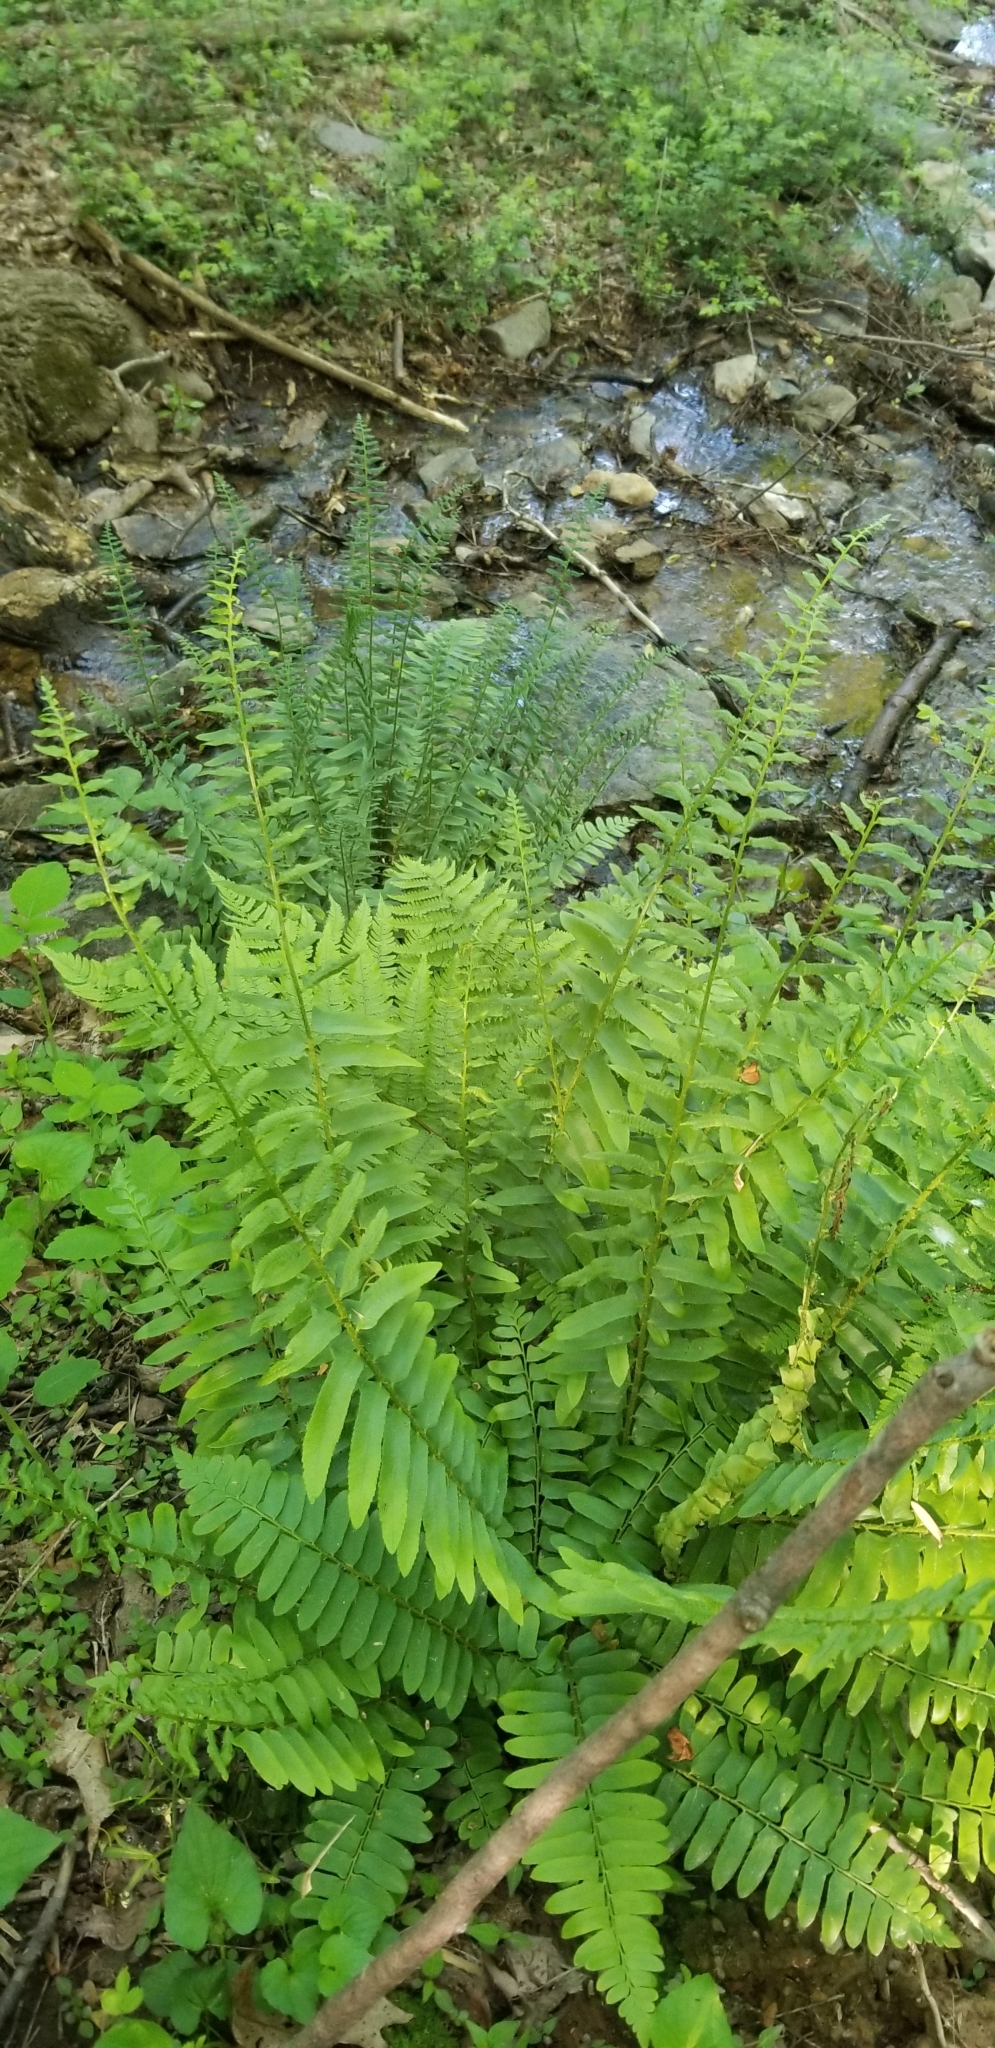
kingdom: Plantae
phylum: Tracheophyta
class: Polypodiopsida
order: Polypodiales
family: Dryopteridaceae
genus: Polystichum
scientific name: Polystichum acrostichoides
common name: Christmas fern
